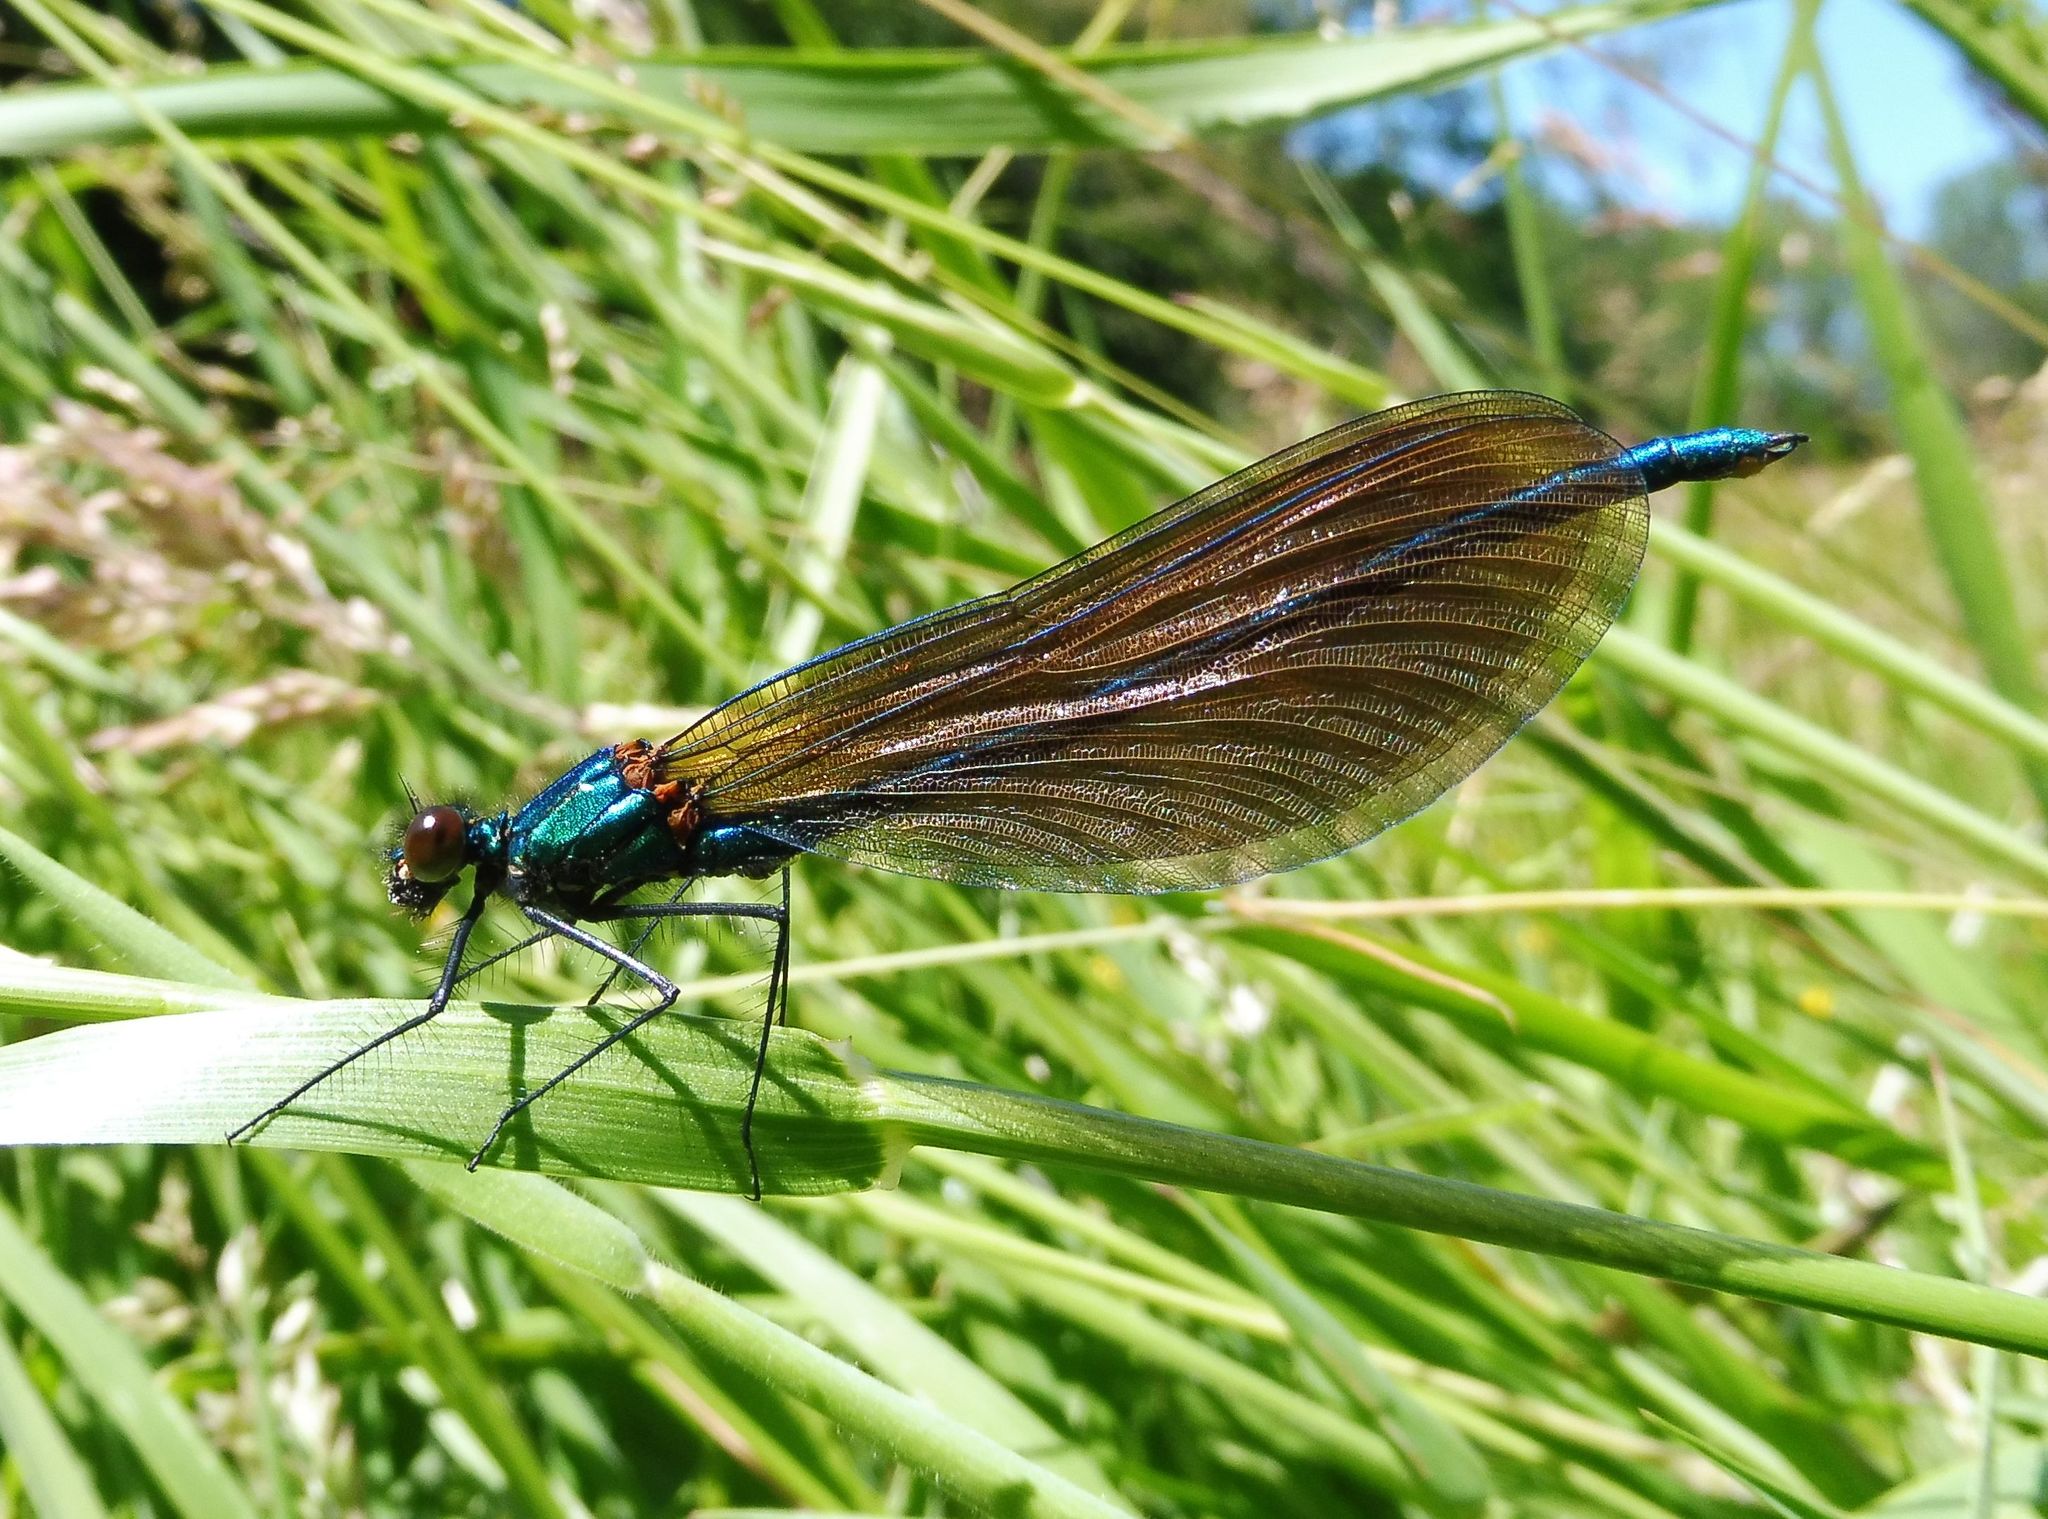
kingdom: Animalia
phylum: Arthropoda
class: Insecta
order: Odonata
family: Calopterygidae
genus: Calopteryx
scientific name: Calopteryx virgo
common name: Beautiful demoiselle
